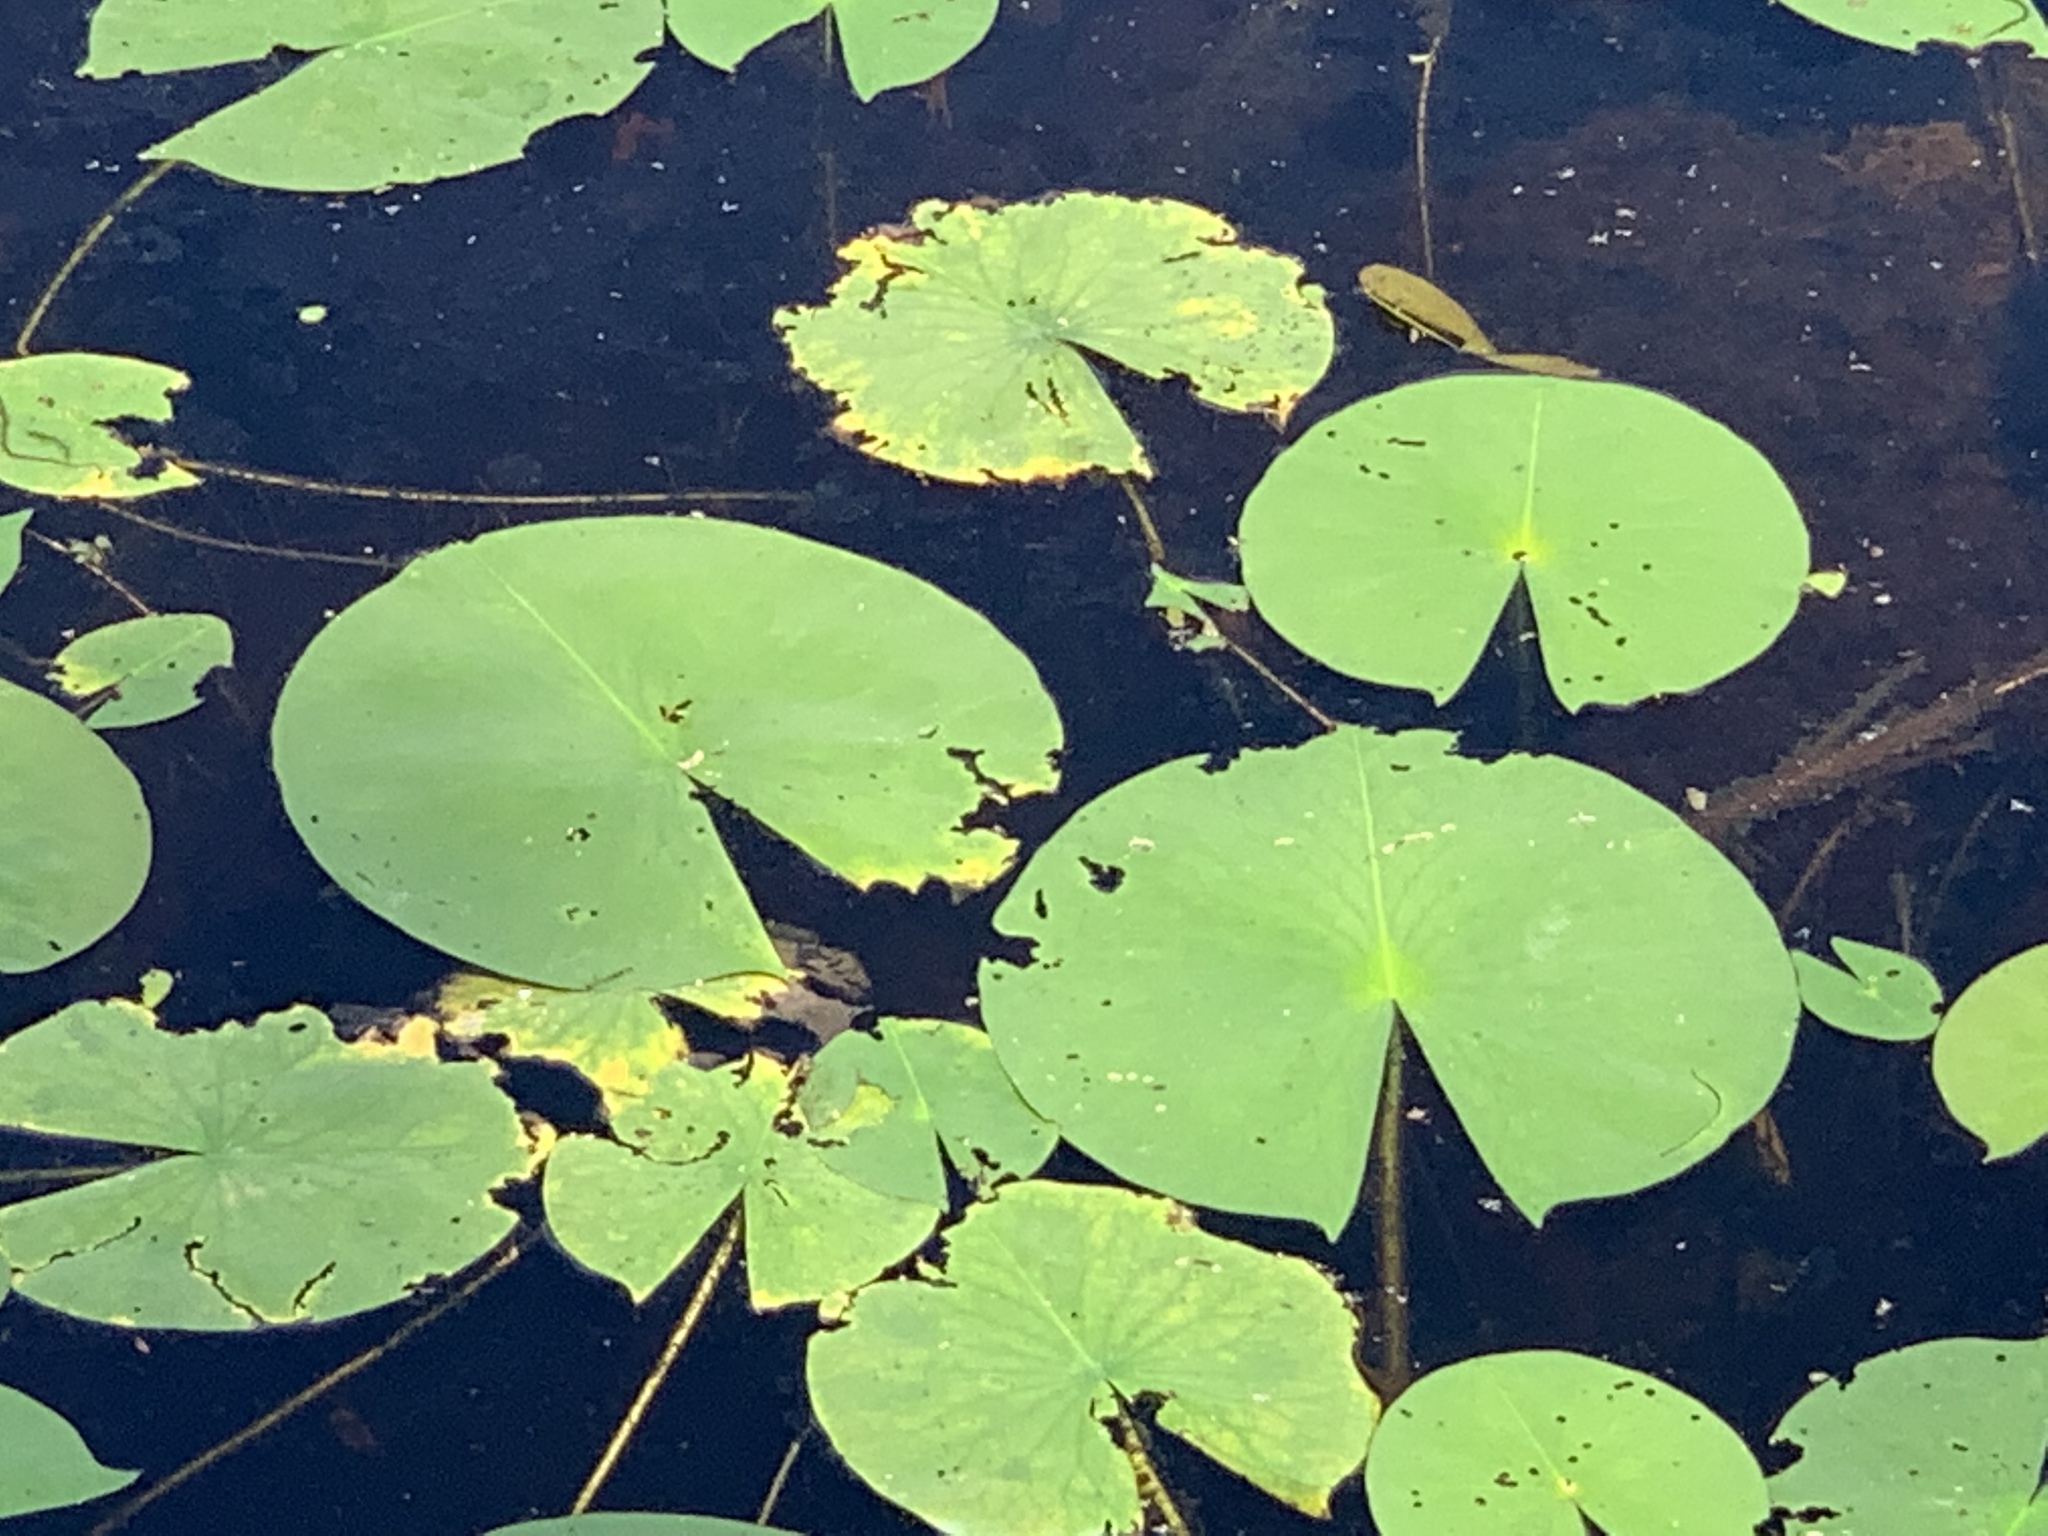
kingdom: Plantae
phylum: Tracheophyta
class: Magnoliopsida
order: Nymphaeales
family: Nymphaeaceae
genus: Nymphaea
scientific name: Nymphaea odorata
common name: Fragrant water-lily
